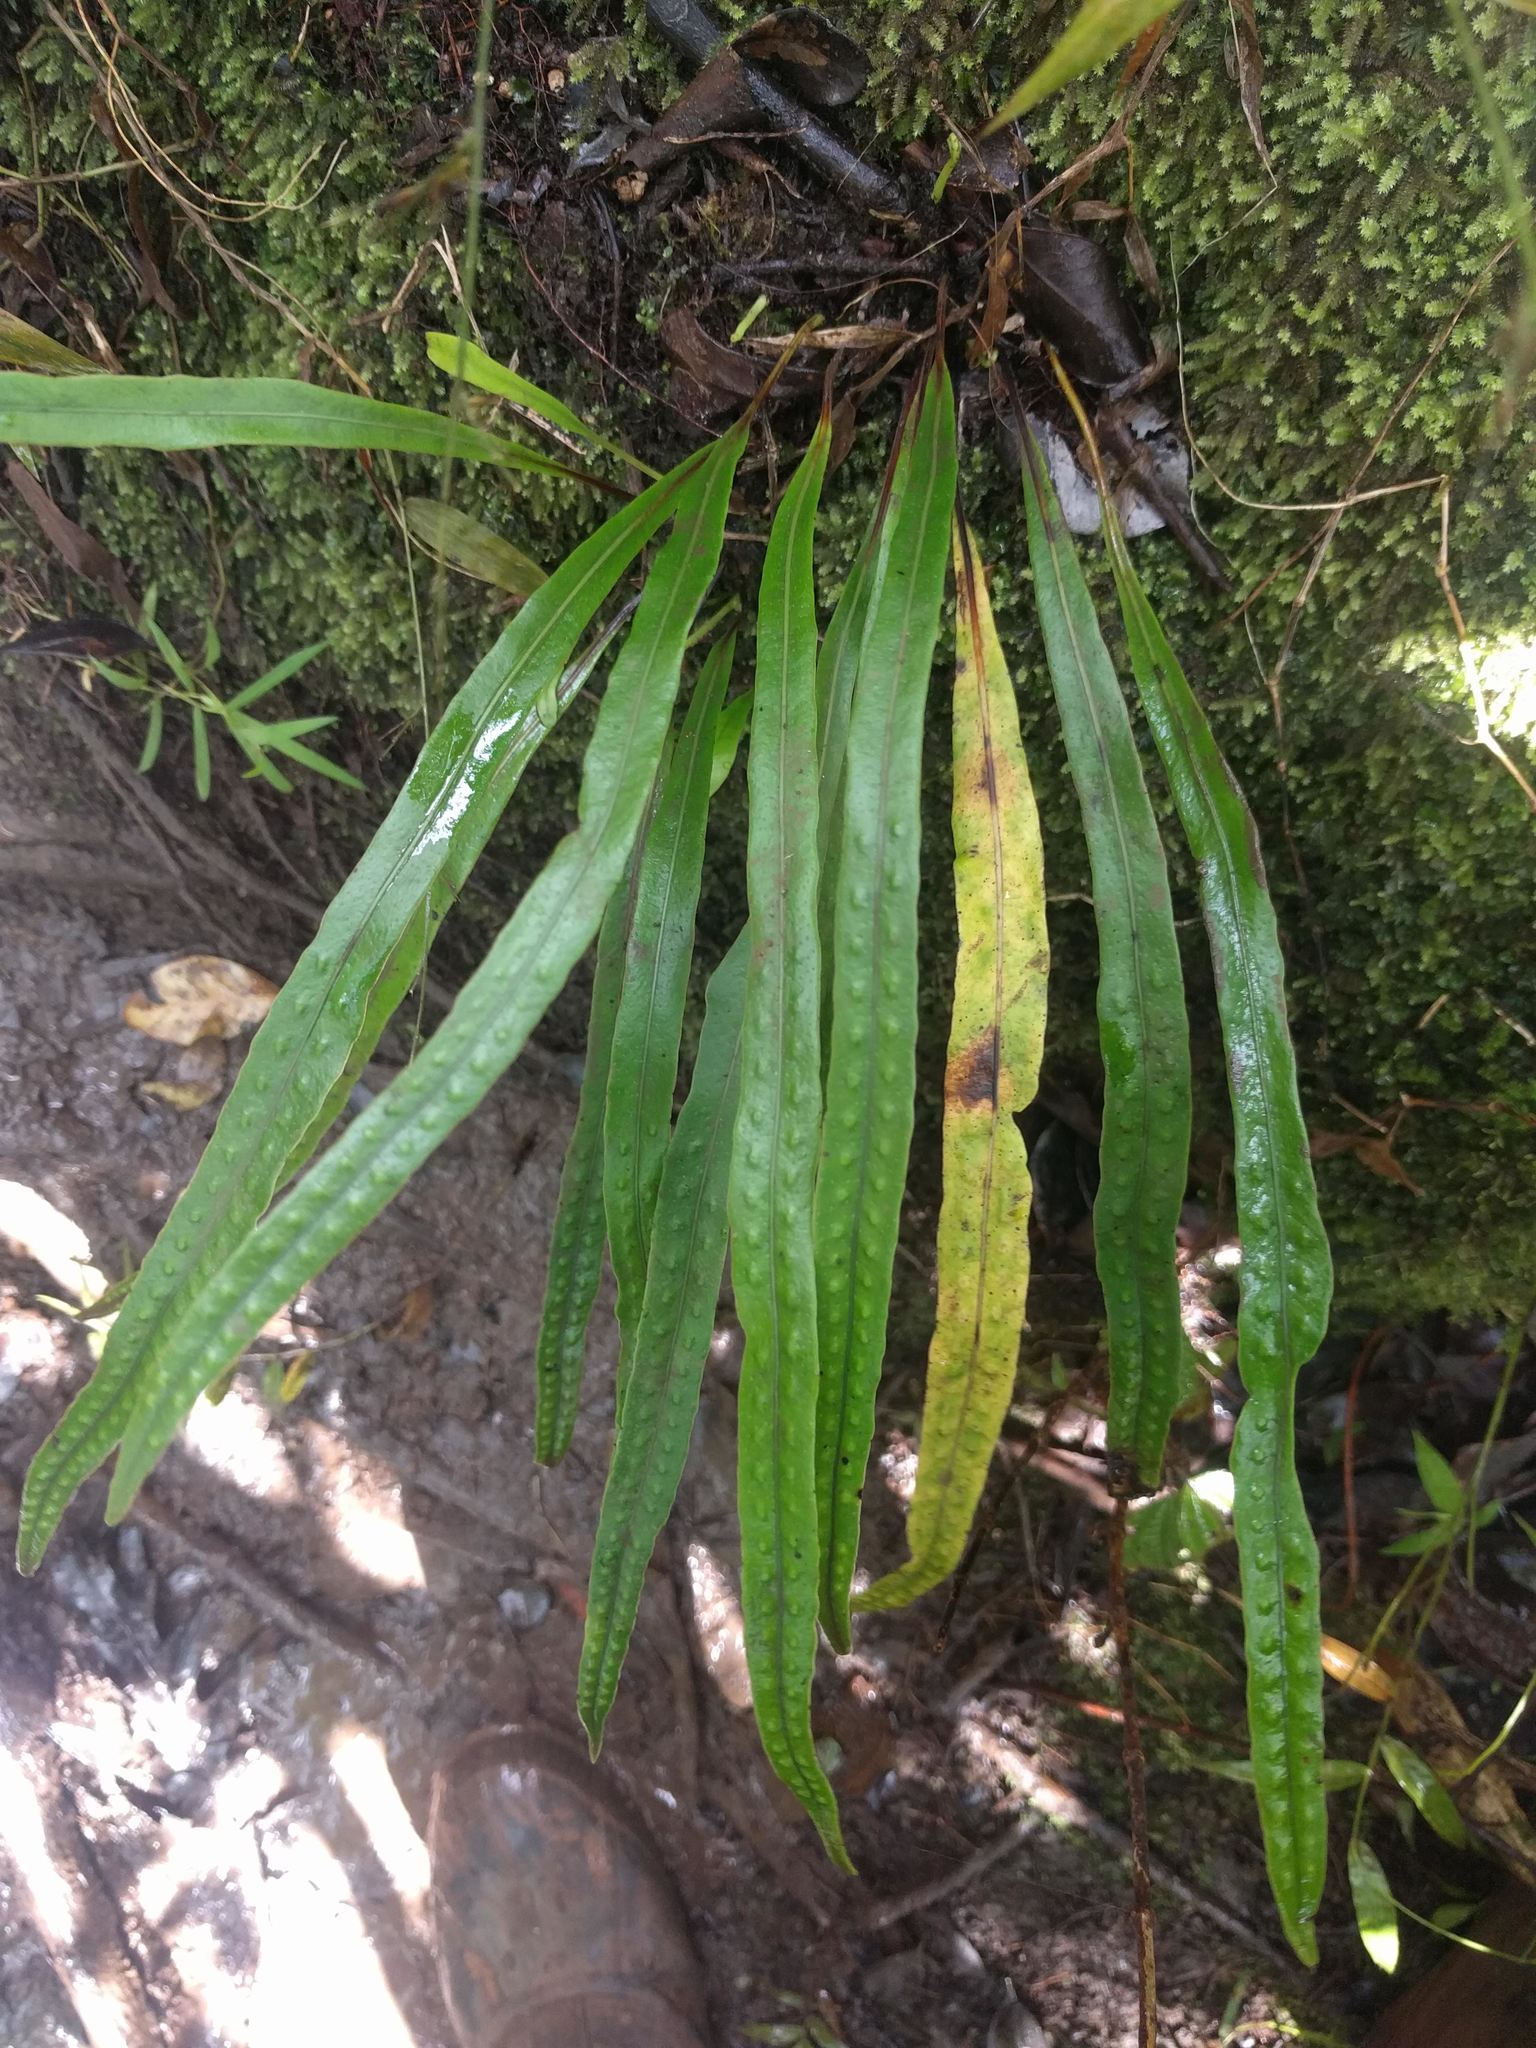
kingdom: Plantae
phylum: Tracheophyta
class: Polypodiopsida
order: Polypodiales
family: Polypodiaceae
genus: Lepisorus
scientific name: Lepisorus thunbergianus
